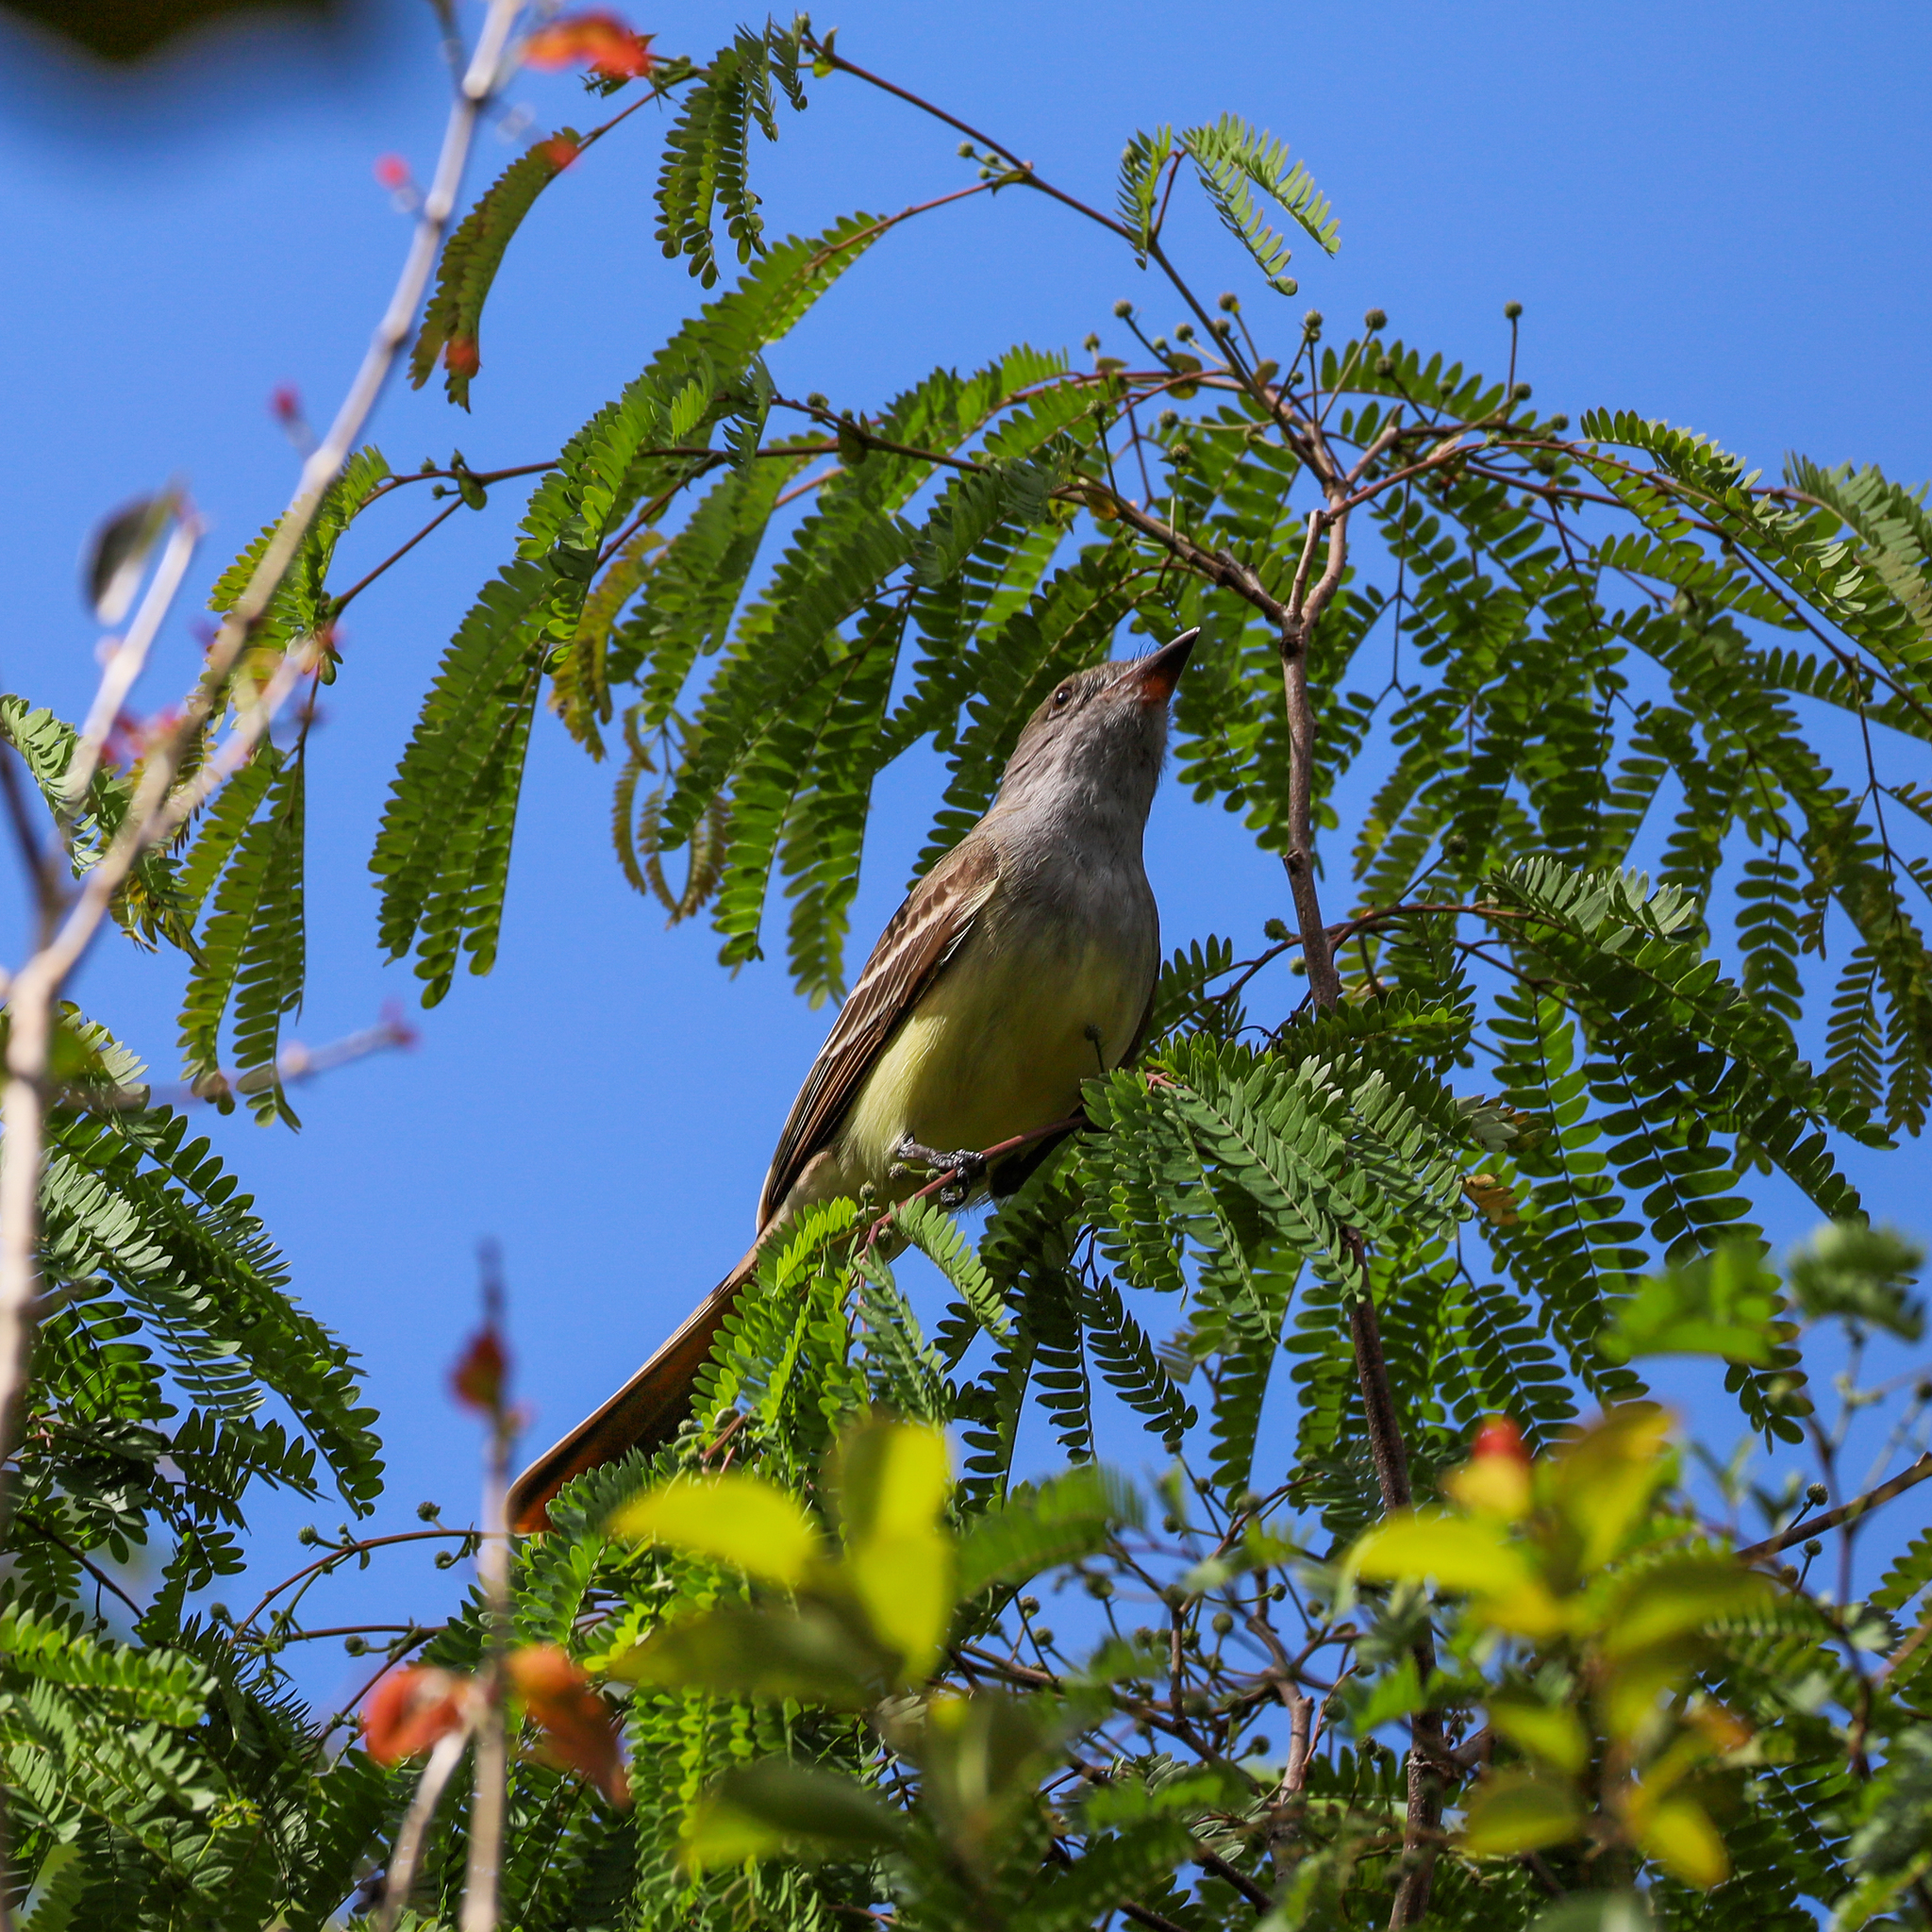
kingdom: Animalia
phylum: Chordata
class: Aves
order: Passeriformes
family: Tyrannidae
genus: Myiarchus
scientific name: Myiarchus crinitus
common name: Great crested flycatcher
